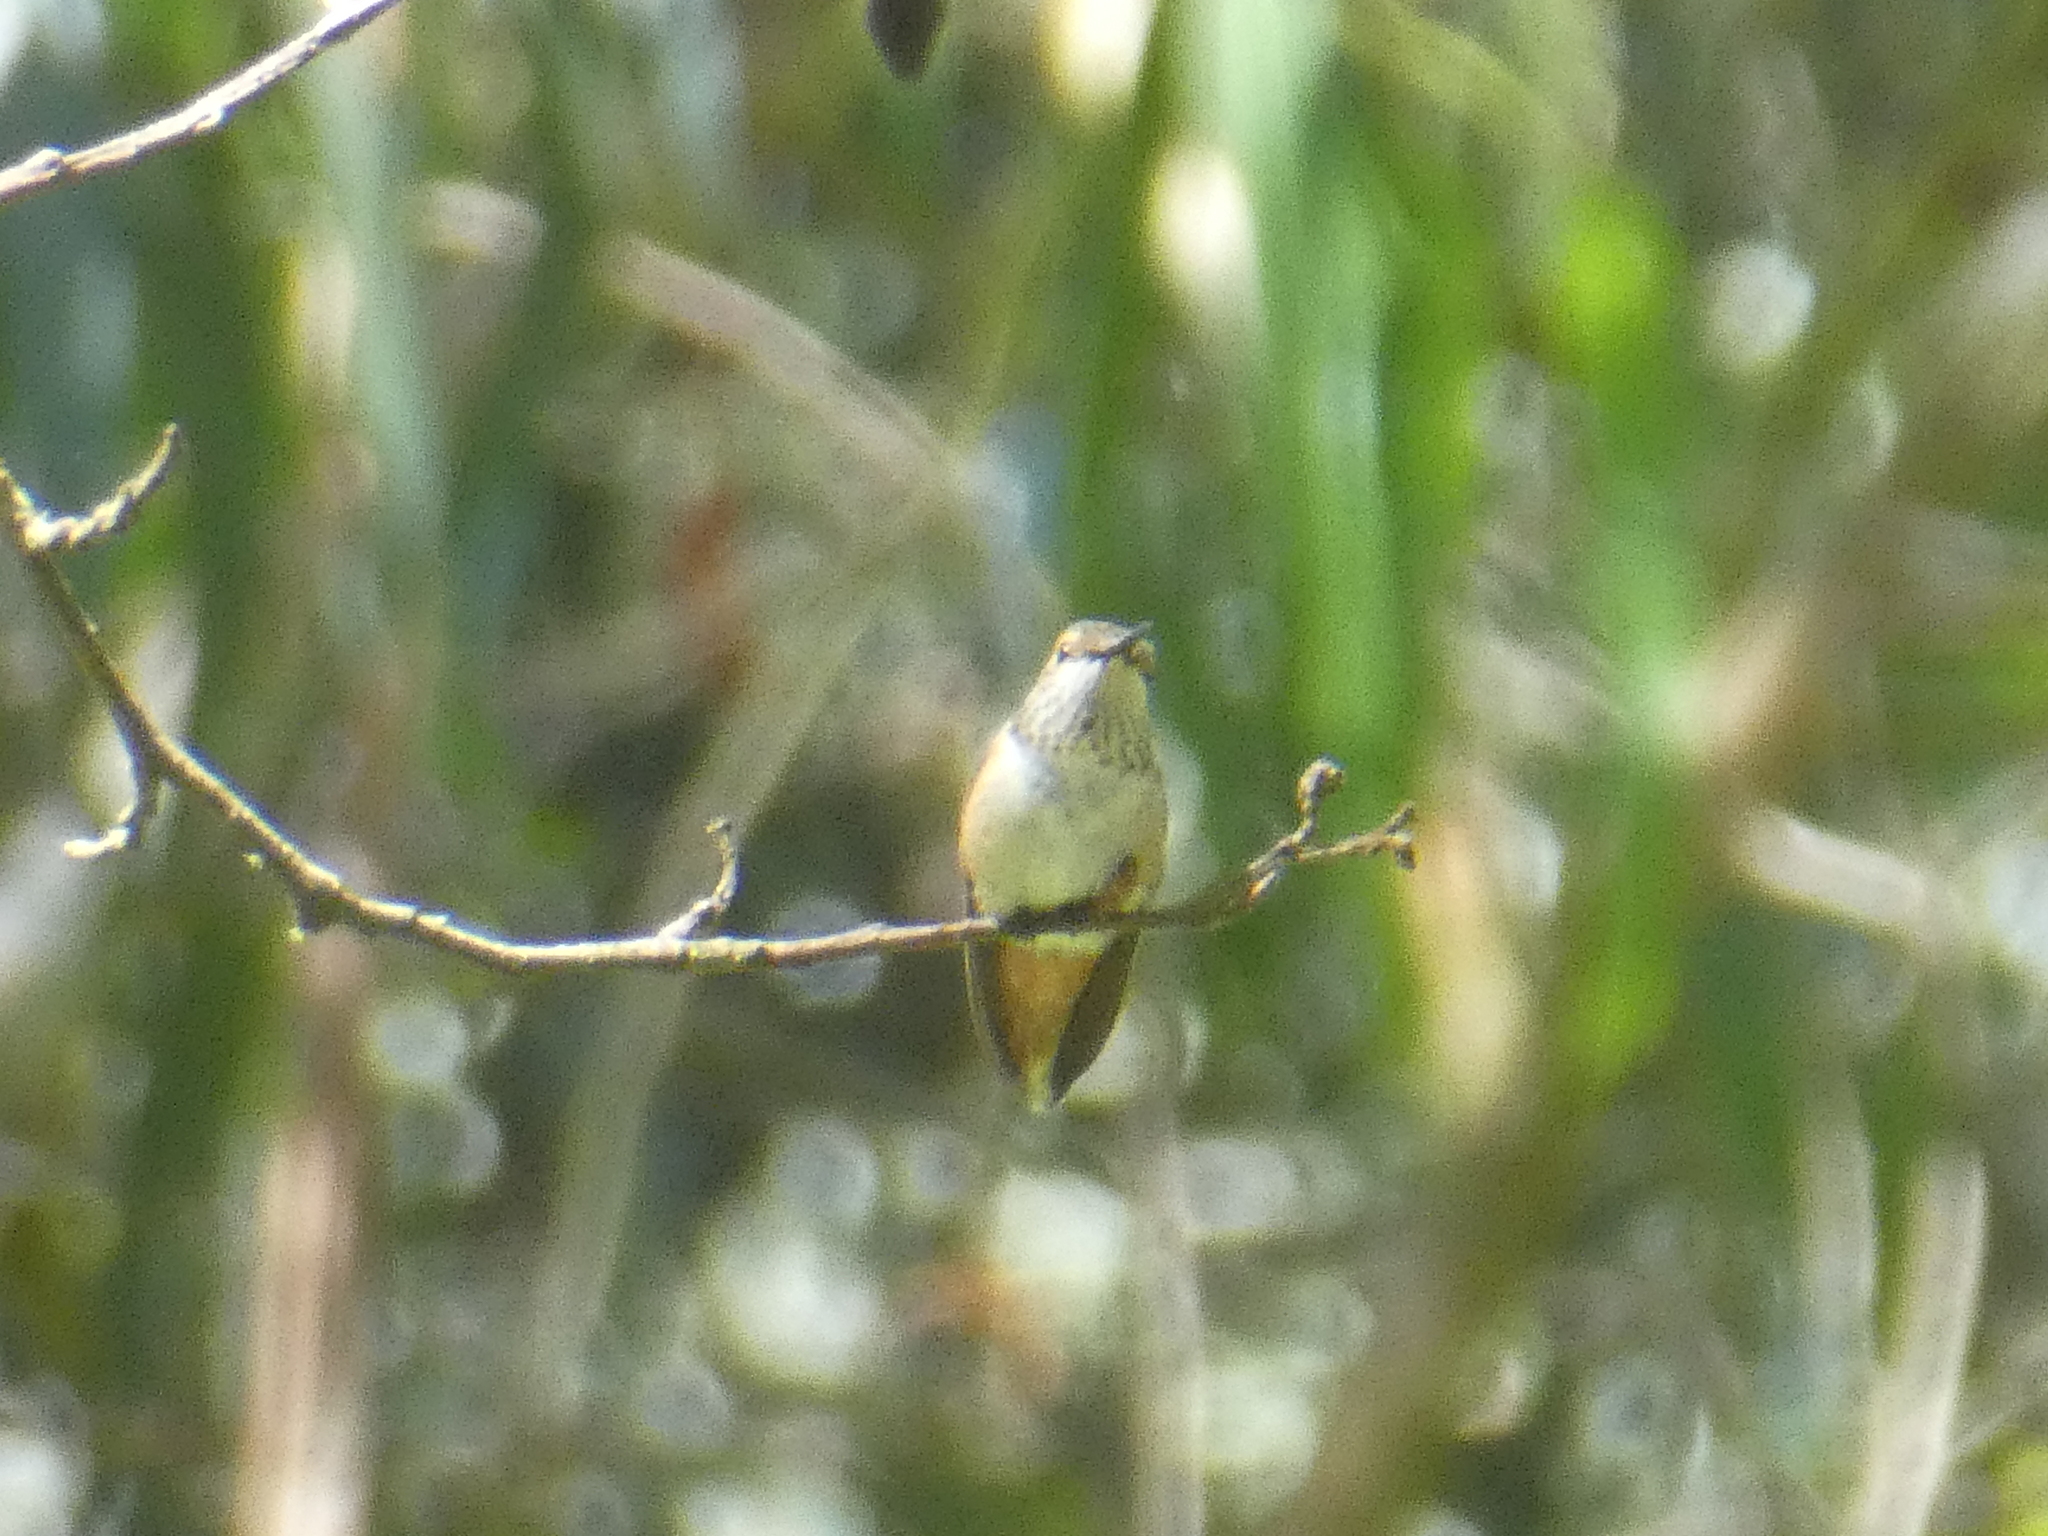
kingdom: Animalia
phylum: Chordata
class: Aves
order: Apodiformes
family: Trochilidae
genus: Selasphorus
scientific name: Selasphorus sasin
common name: Allen's hummingbird
